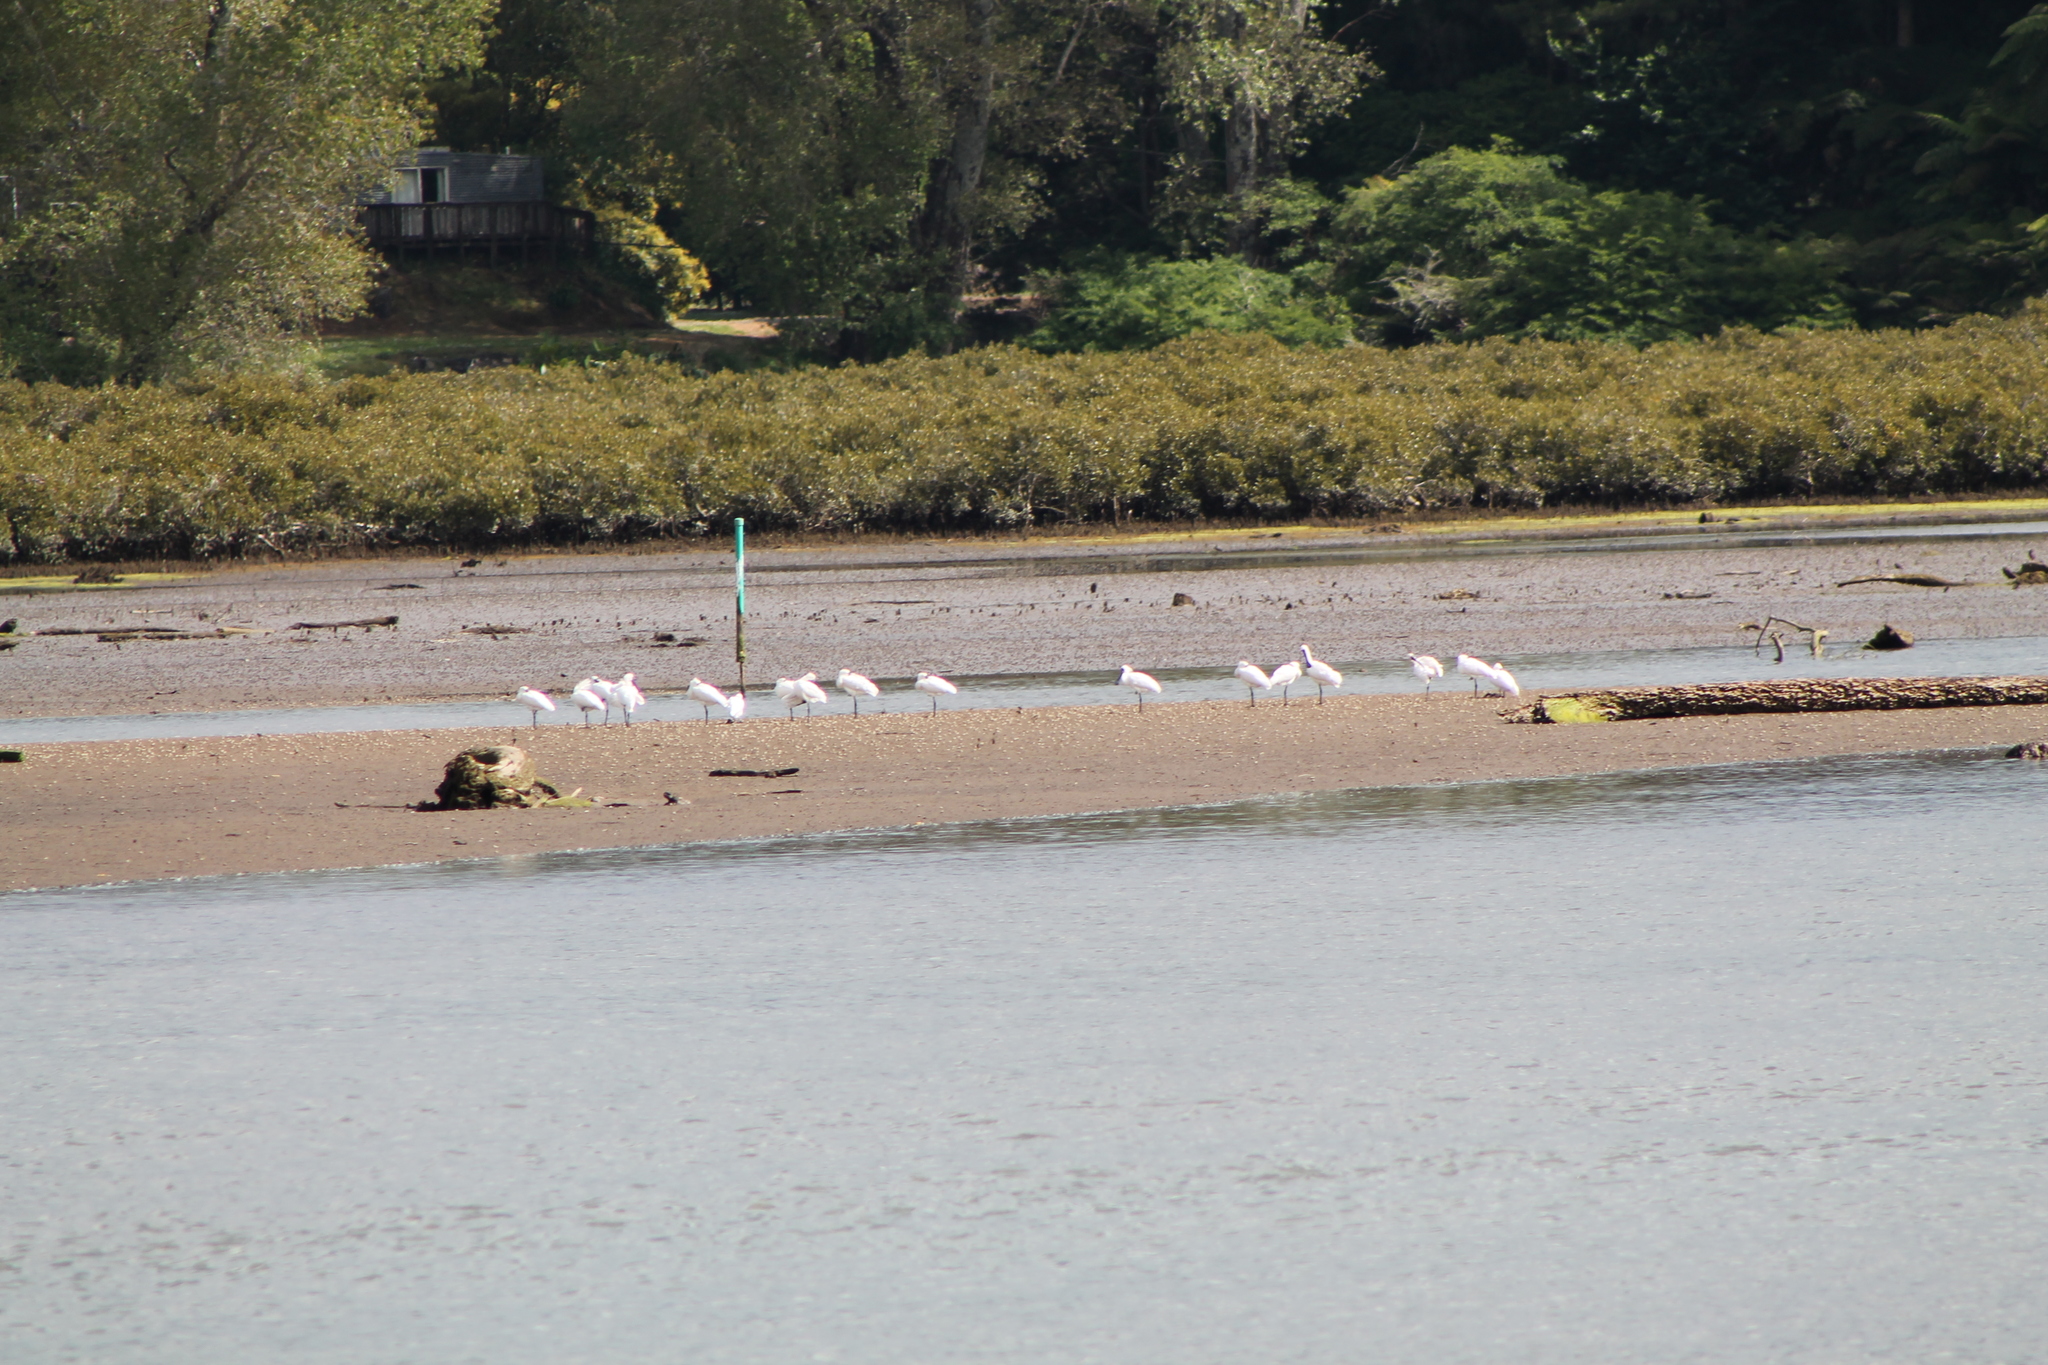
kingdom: Animalia
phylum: Chordata
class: Aves
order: Pelecaniformes
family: Threskiornithidae
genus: Platalea
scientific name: Platalea regia
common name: Royal spoonbill
